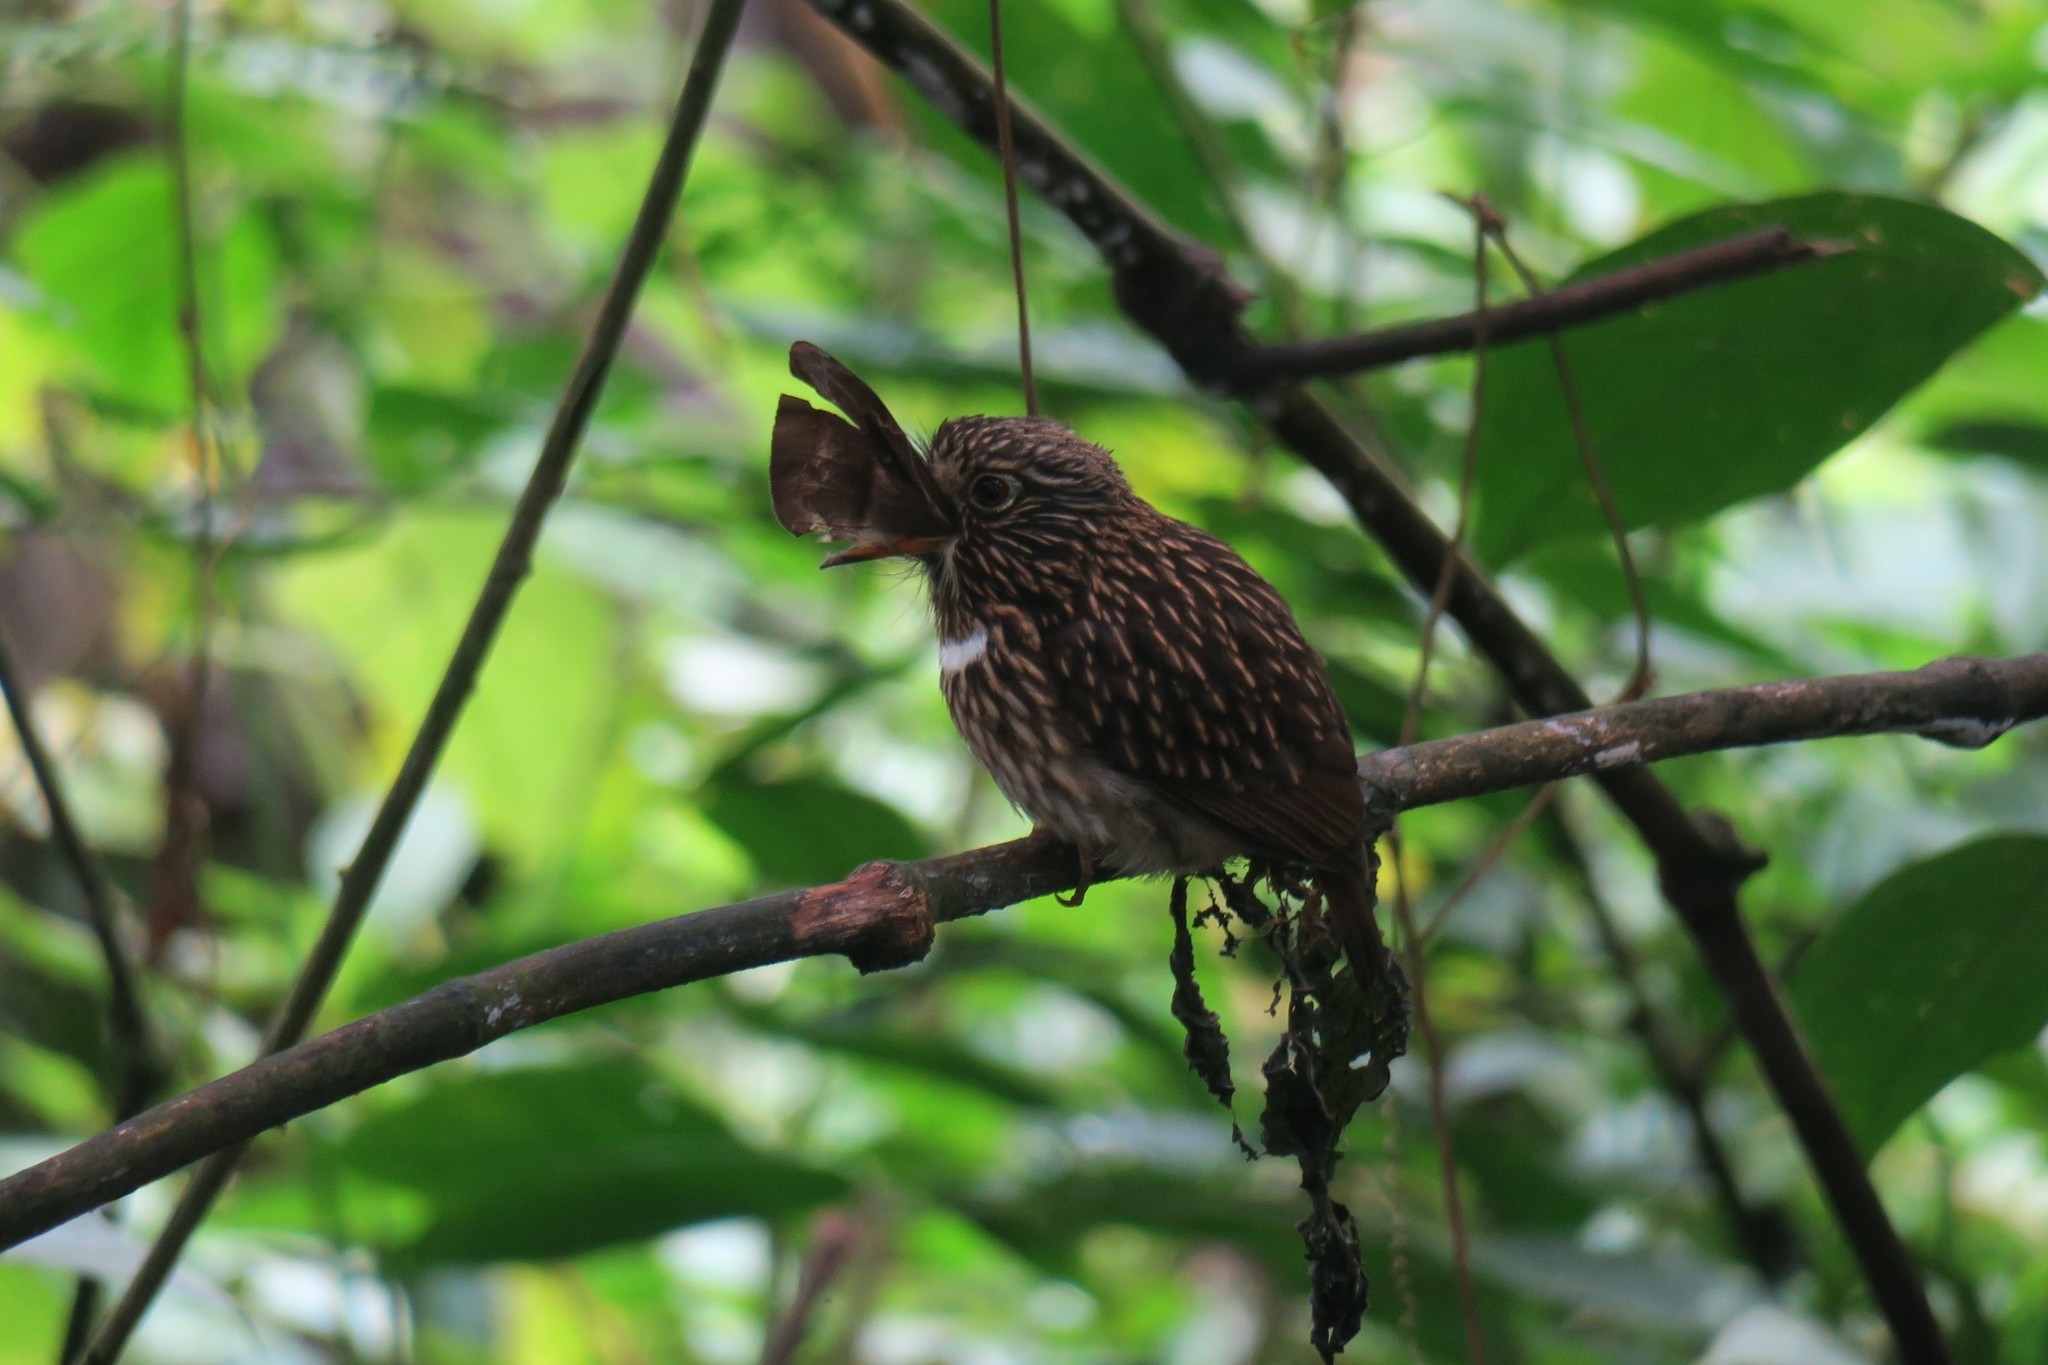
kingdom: Animalia
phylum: Chordata
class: Aves
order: Piciformes
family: Bucconidae
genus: Malacoptila
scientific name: Malacoptila fusca
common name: White-chested puffbird
